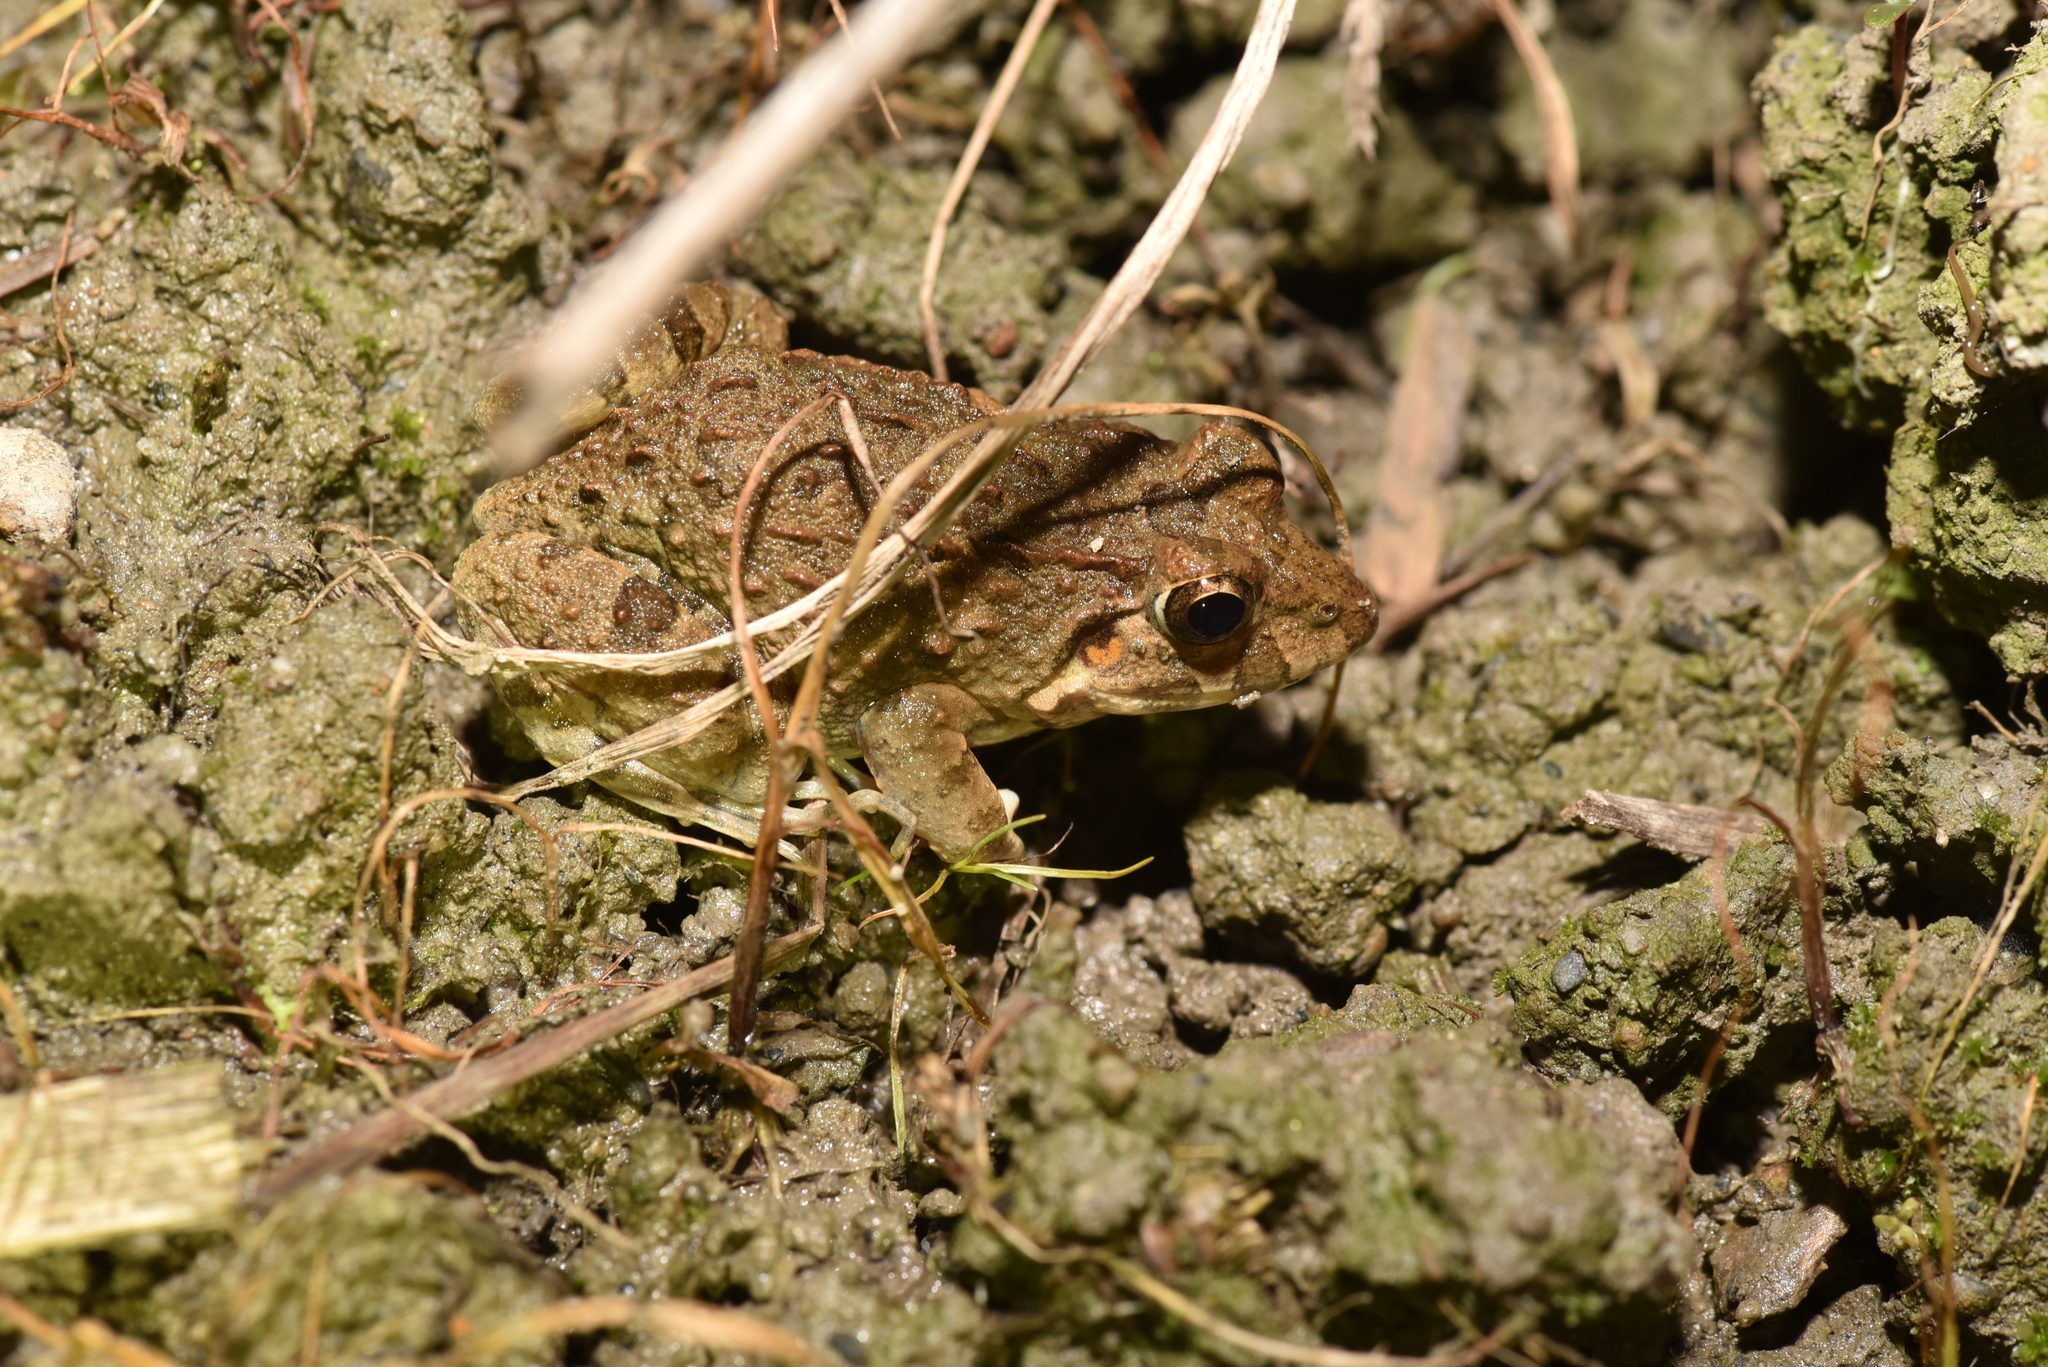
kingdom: Animalia
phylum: Chordata
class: Amphibia
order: Anura
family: Dicroglossidae
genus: Fejervarya
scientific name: Fejervarya limnocharis
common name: Asian grass frog/common pond frog/field frog/grass frog/indian rice frog
